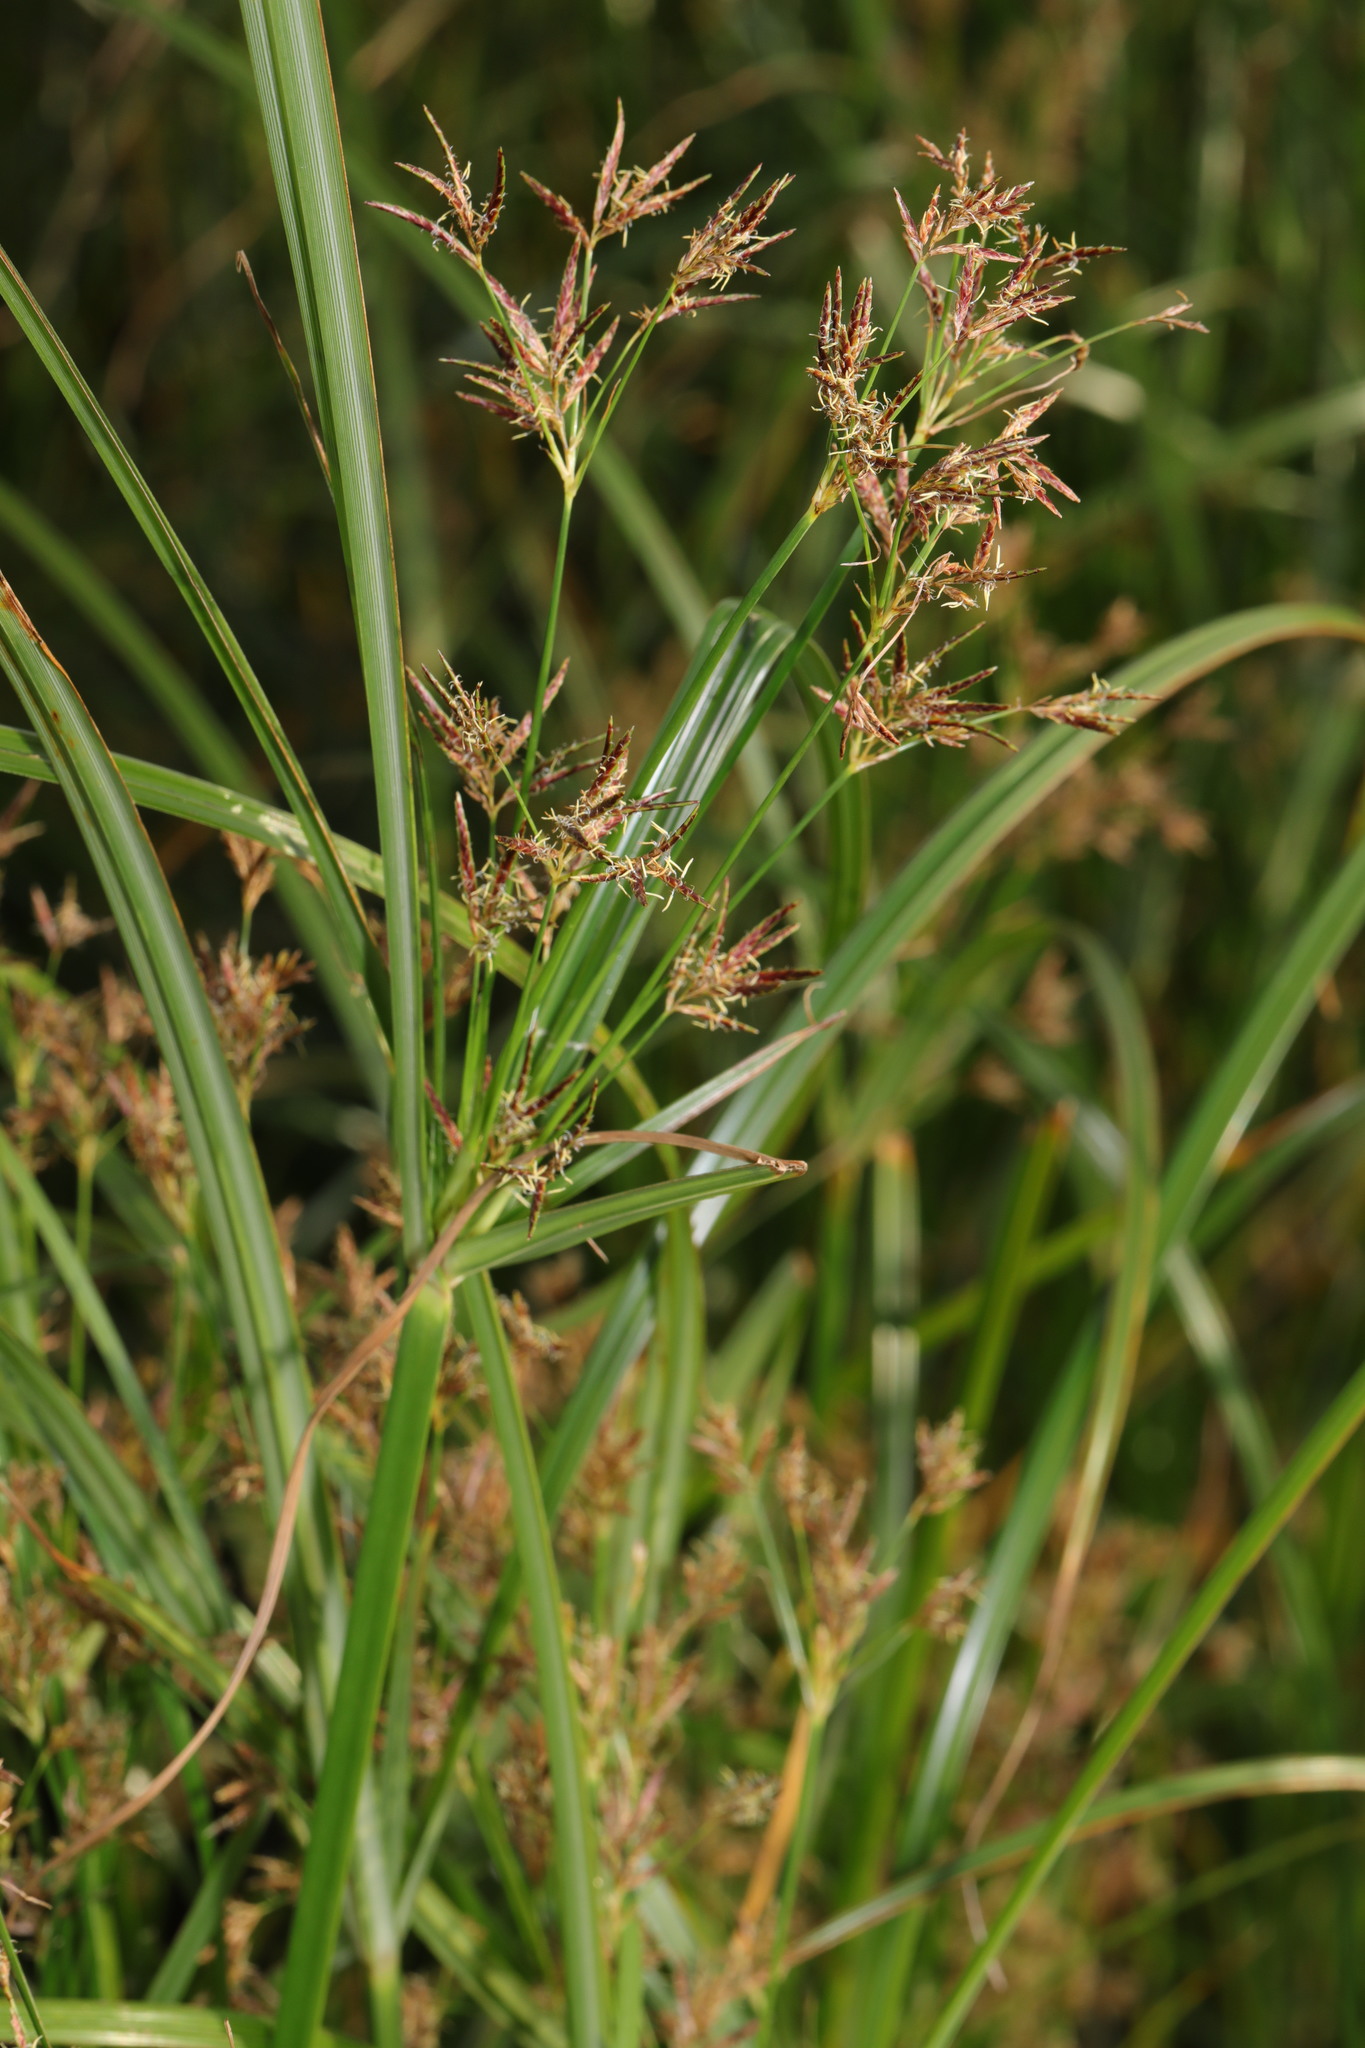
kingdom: Plantae
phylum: Tracheophyta
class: Liliopsida
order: Poales
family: Cyperaceae
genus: Cyperus
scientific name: Cyperus longus
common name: Galingale
